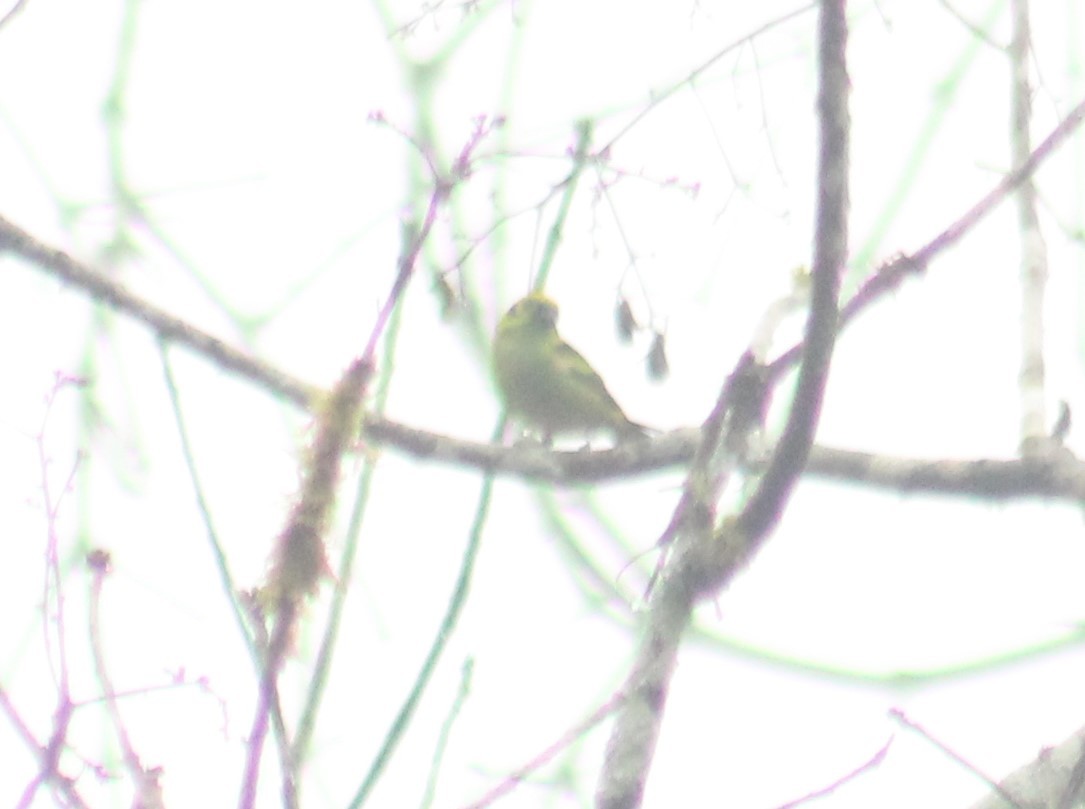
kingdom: Animalia
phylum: Chordata
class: Aves
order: Passeriformes
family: Thraupidae
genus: Tangara
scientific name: Tangara florida
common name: Emerald tanager
